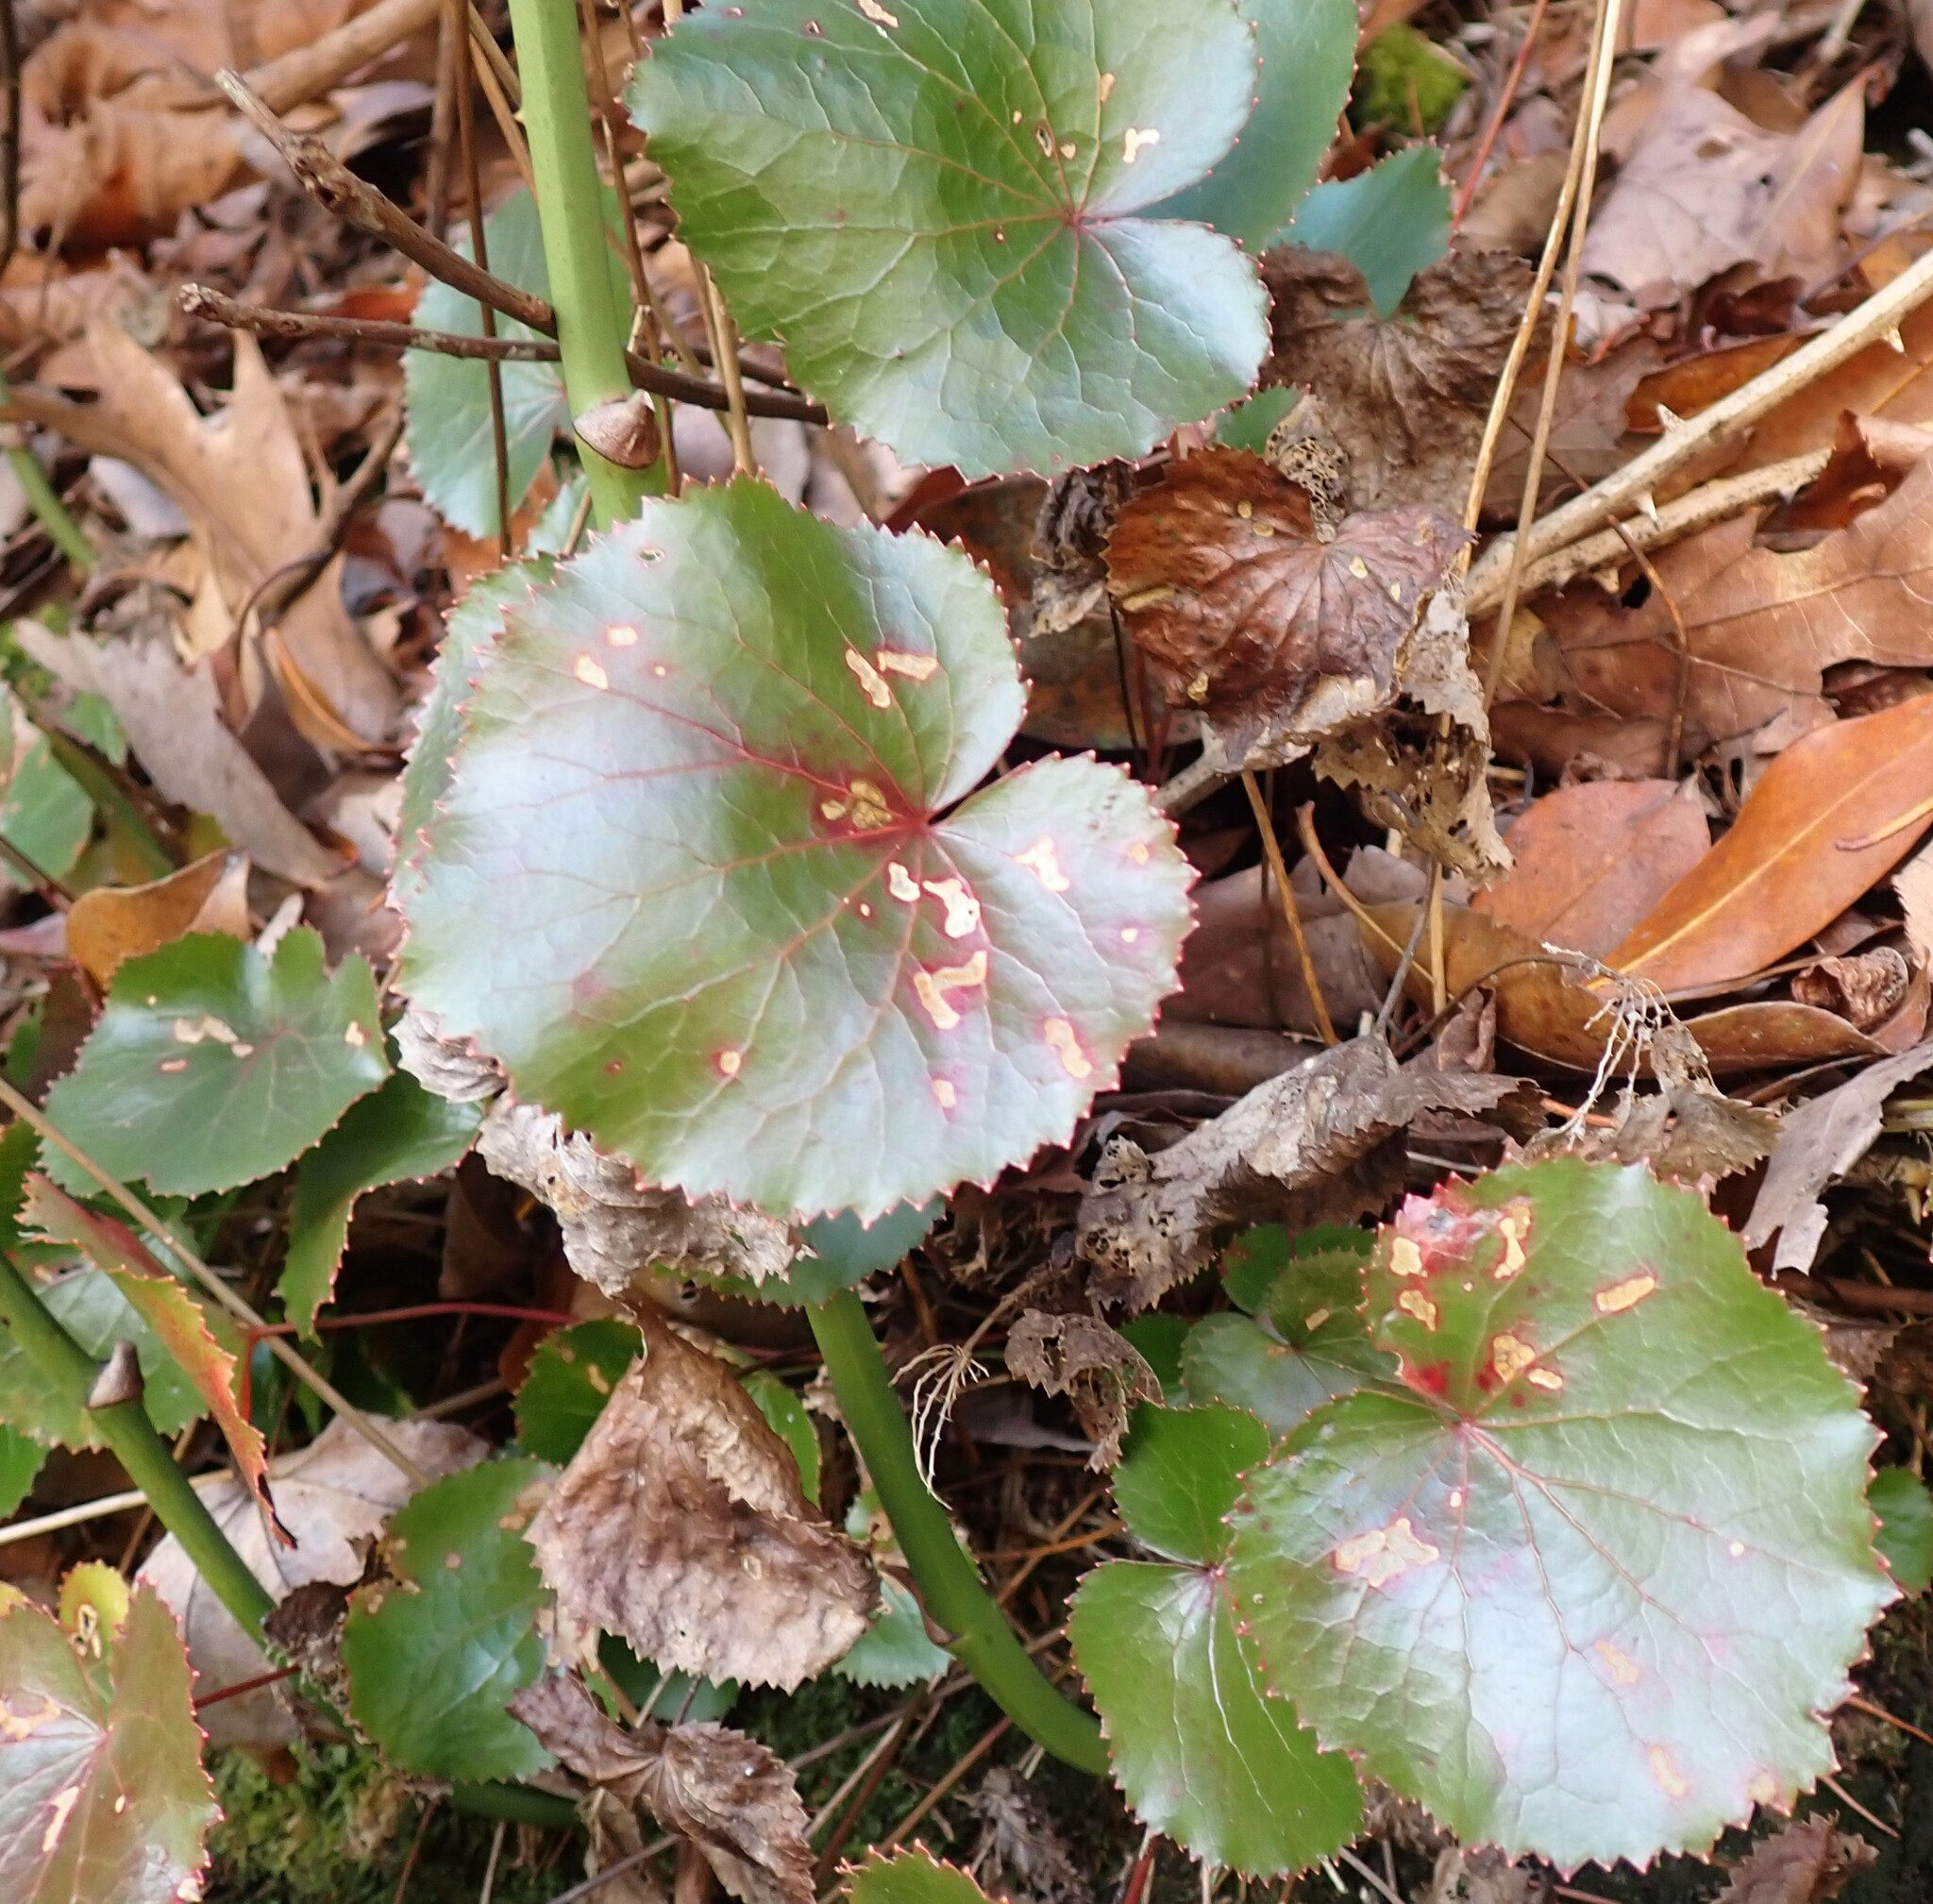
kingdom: Plantae
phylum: Tracheophyta
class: Magnoliopsida
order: Ericales
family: Diapensiaceae
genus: Galax
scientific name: Galax urceolata
